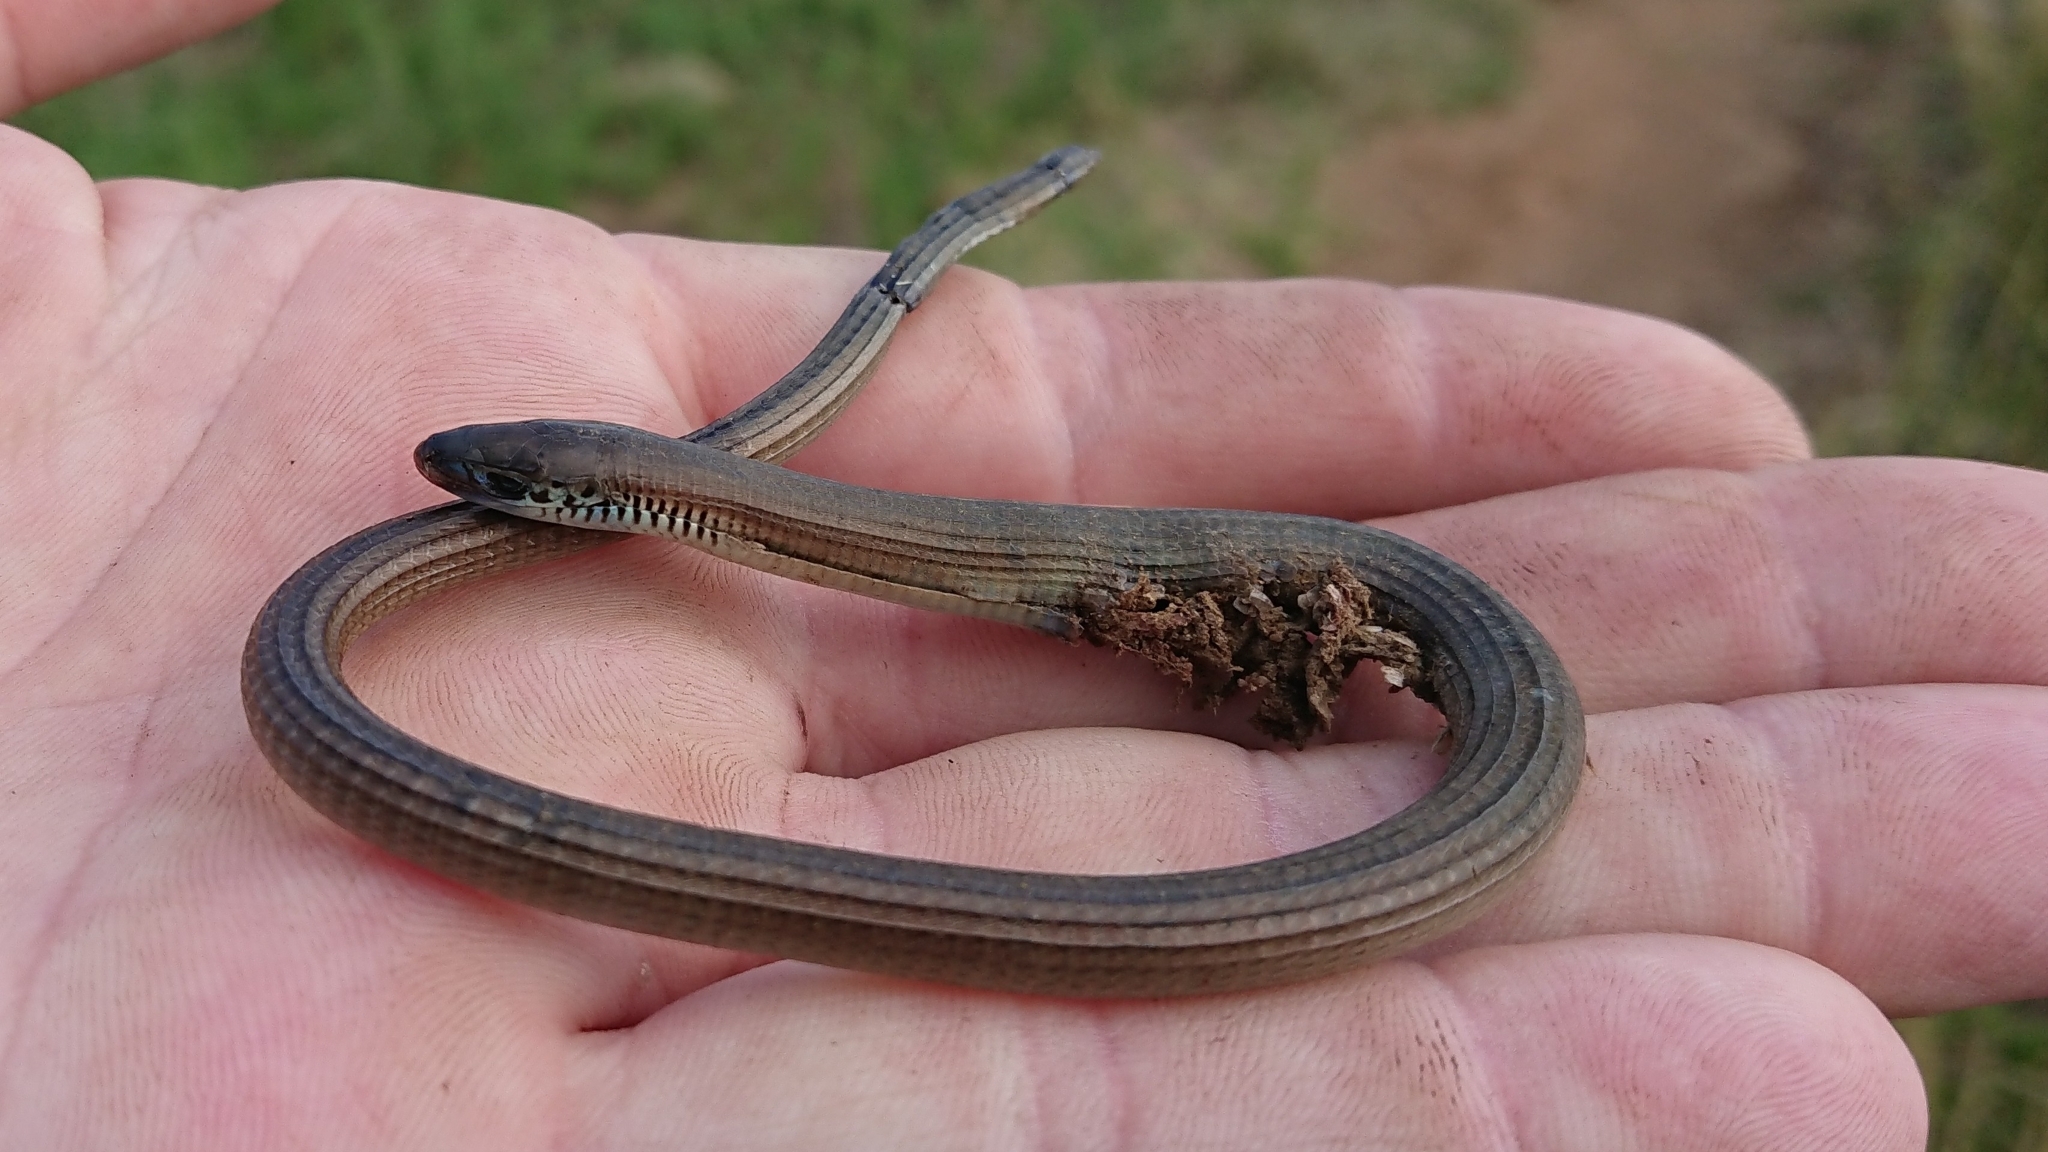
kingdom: Animalia
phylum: Chordata
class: Squamata
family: Gerrhosauridae
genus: Tetradactylus
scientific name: Tetradactylus africanus
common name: African whip lizard
